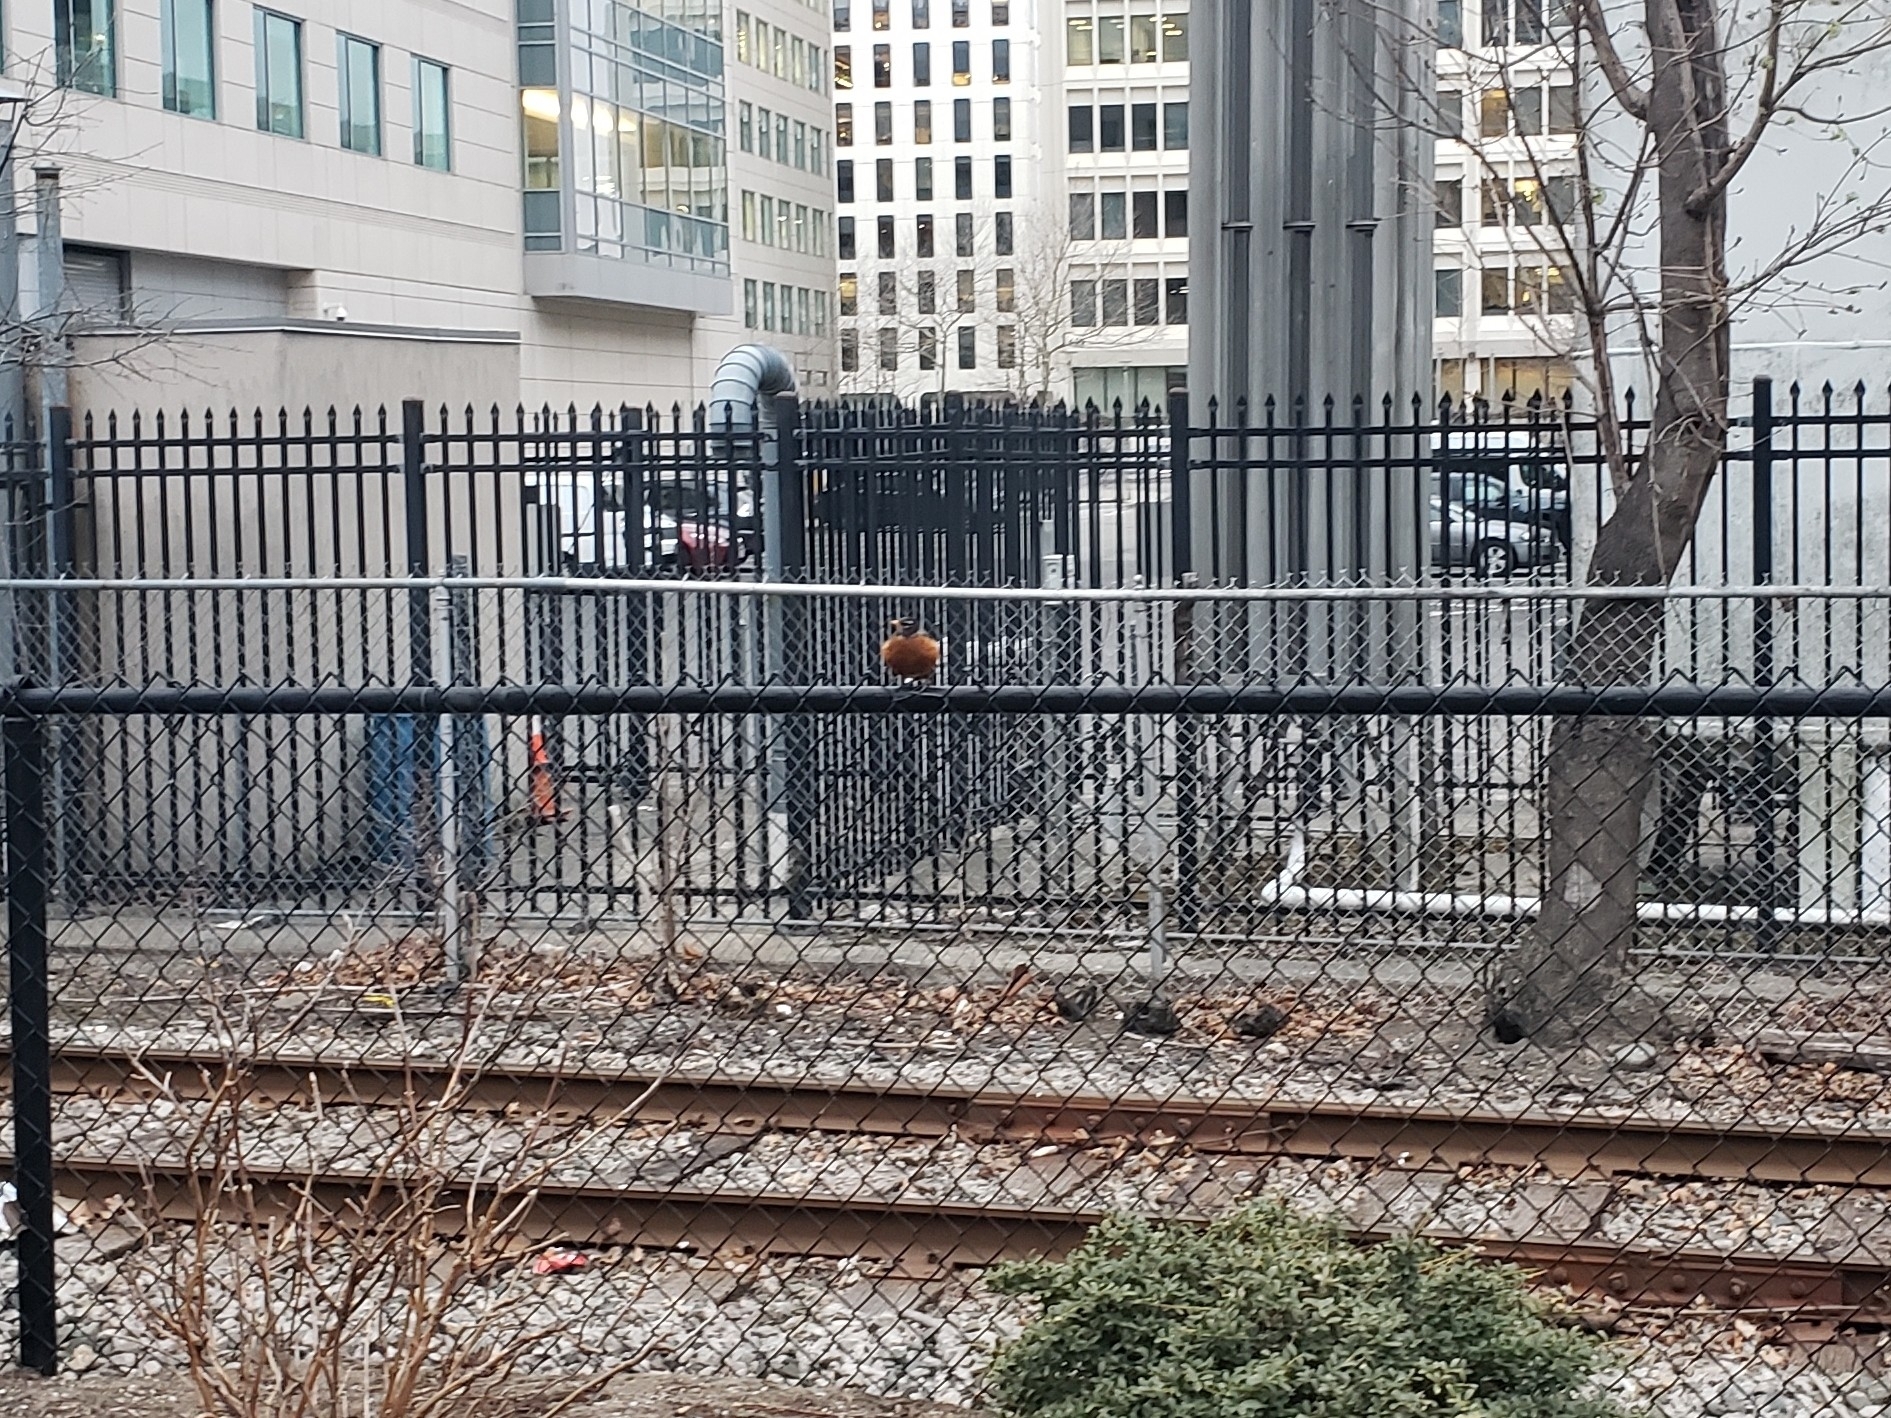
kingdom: Animalia
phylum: Chordata
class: Aves
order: Passeriformes
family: Turdidae
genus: Turdus
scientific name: Turdus migratorius
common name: American robin
